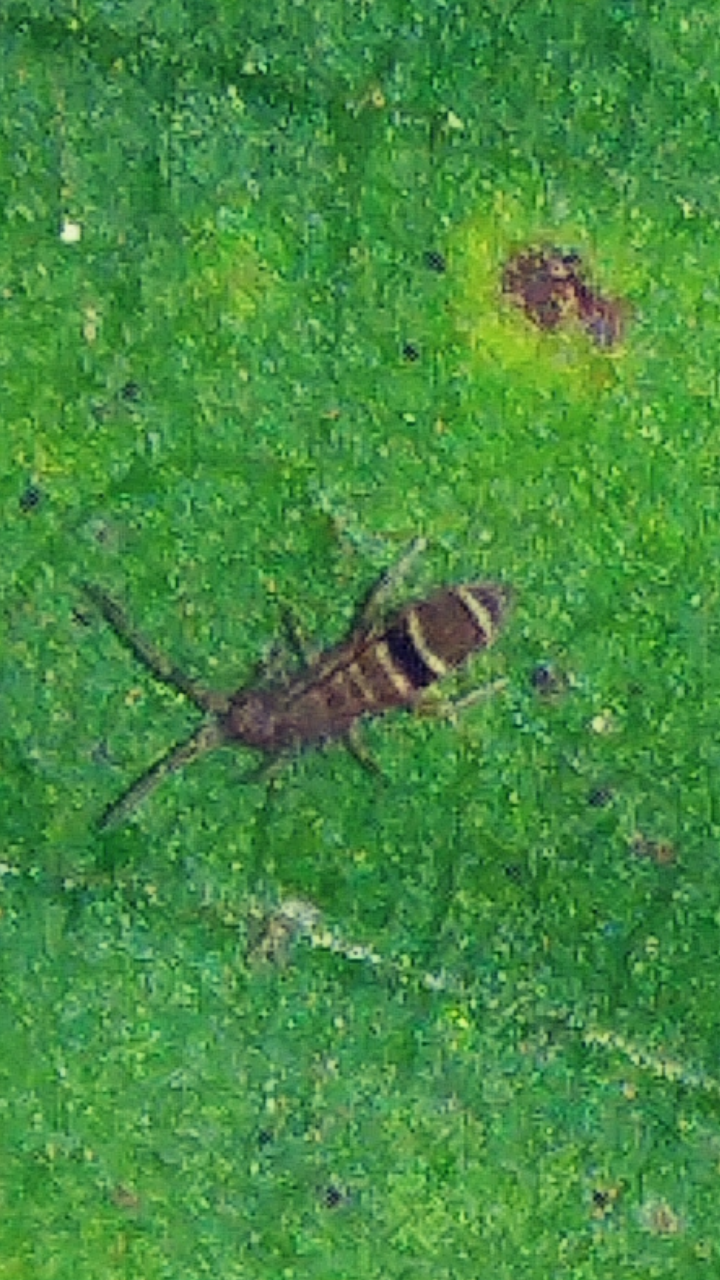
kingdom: Animalia
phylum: Arthropoda
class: Collembola
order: Entomobryomorpha
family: Orchesellidae
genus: Orchesella
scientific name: Orchesella cincta
